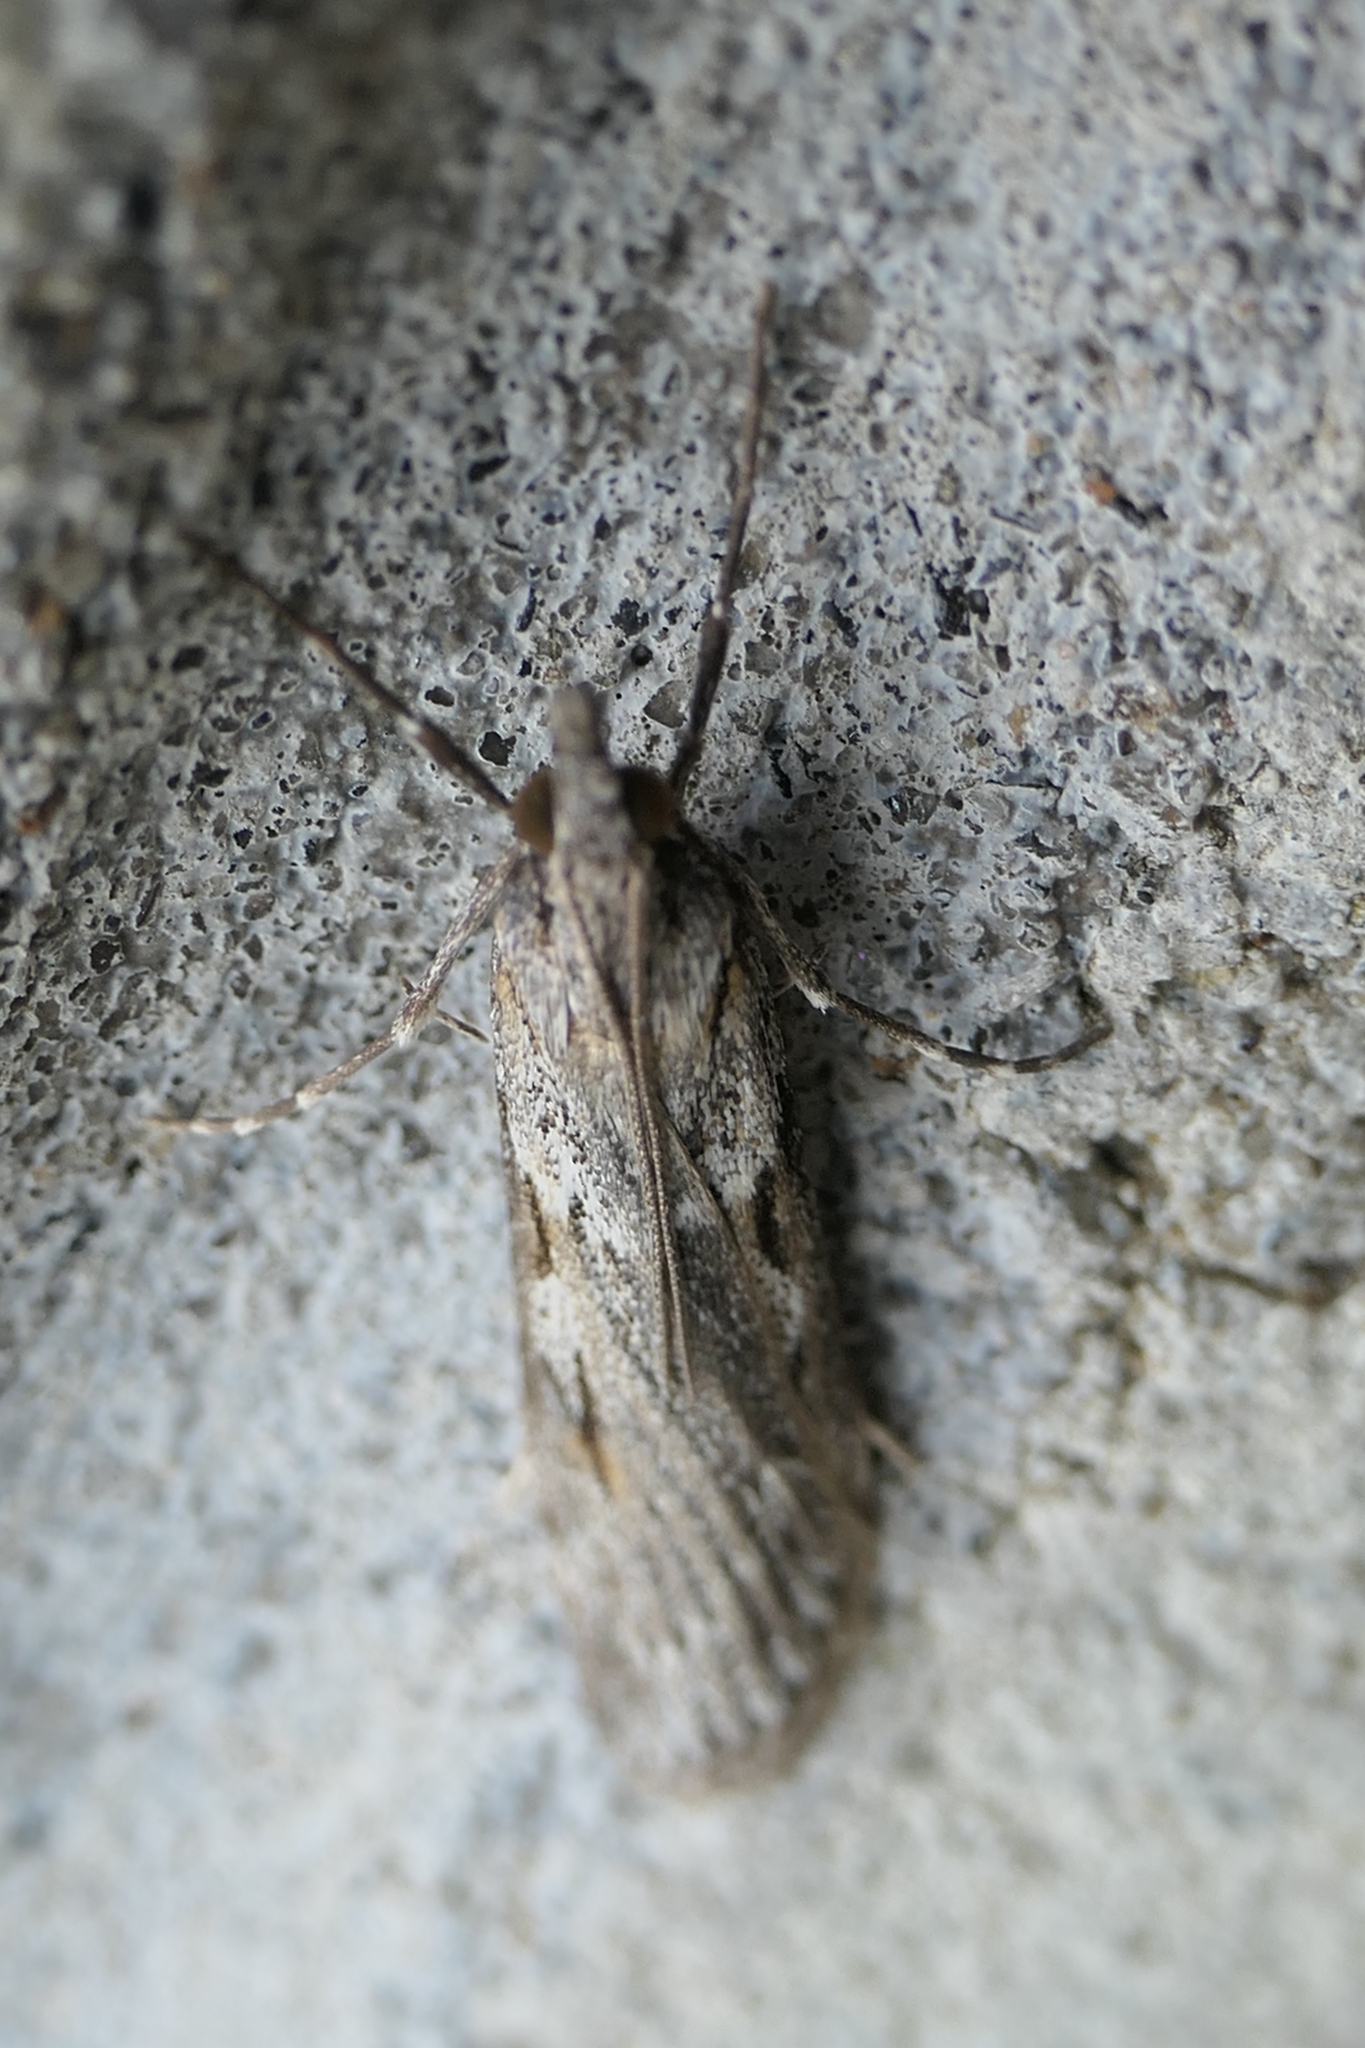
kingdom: Animalia
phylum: Arthropoda
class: Insecta
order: Lepidoptera
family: Crambidae
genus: Scoparia
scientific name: Scoparia halopis
